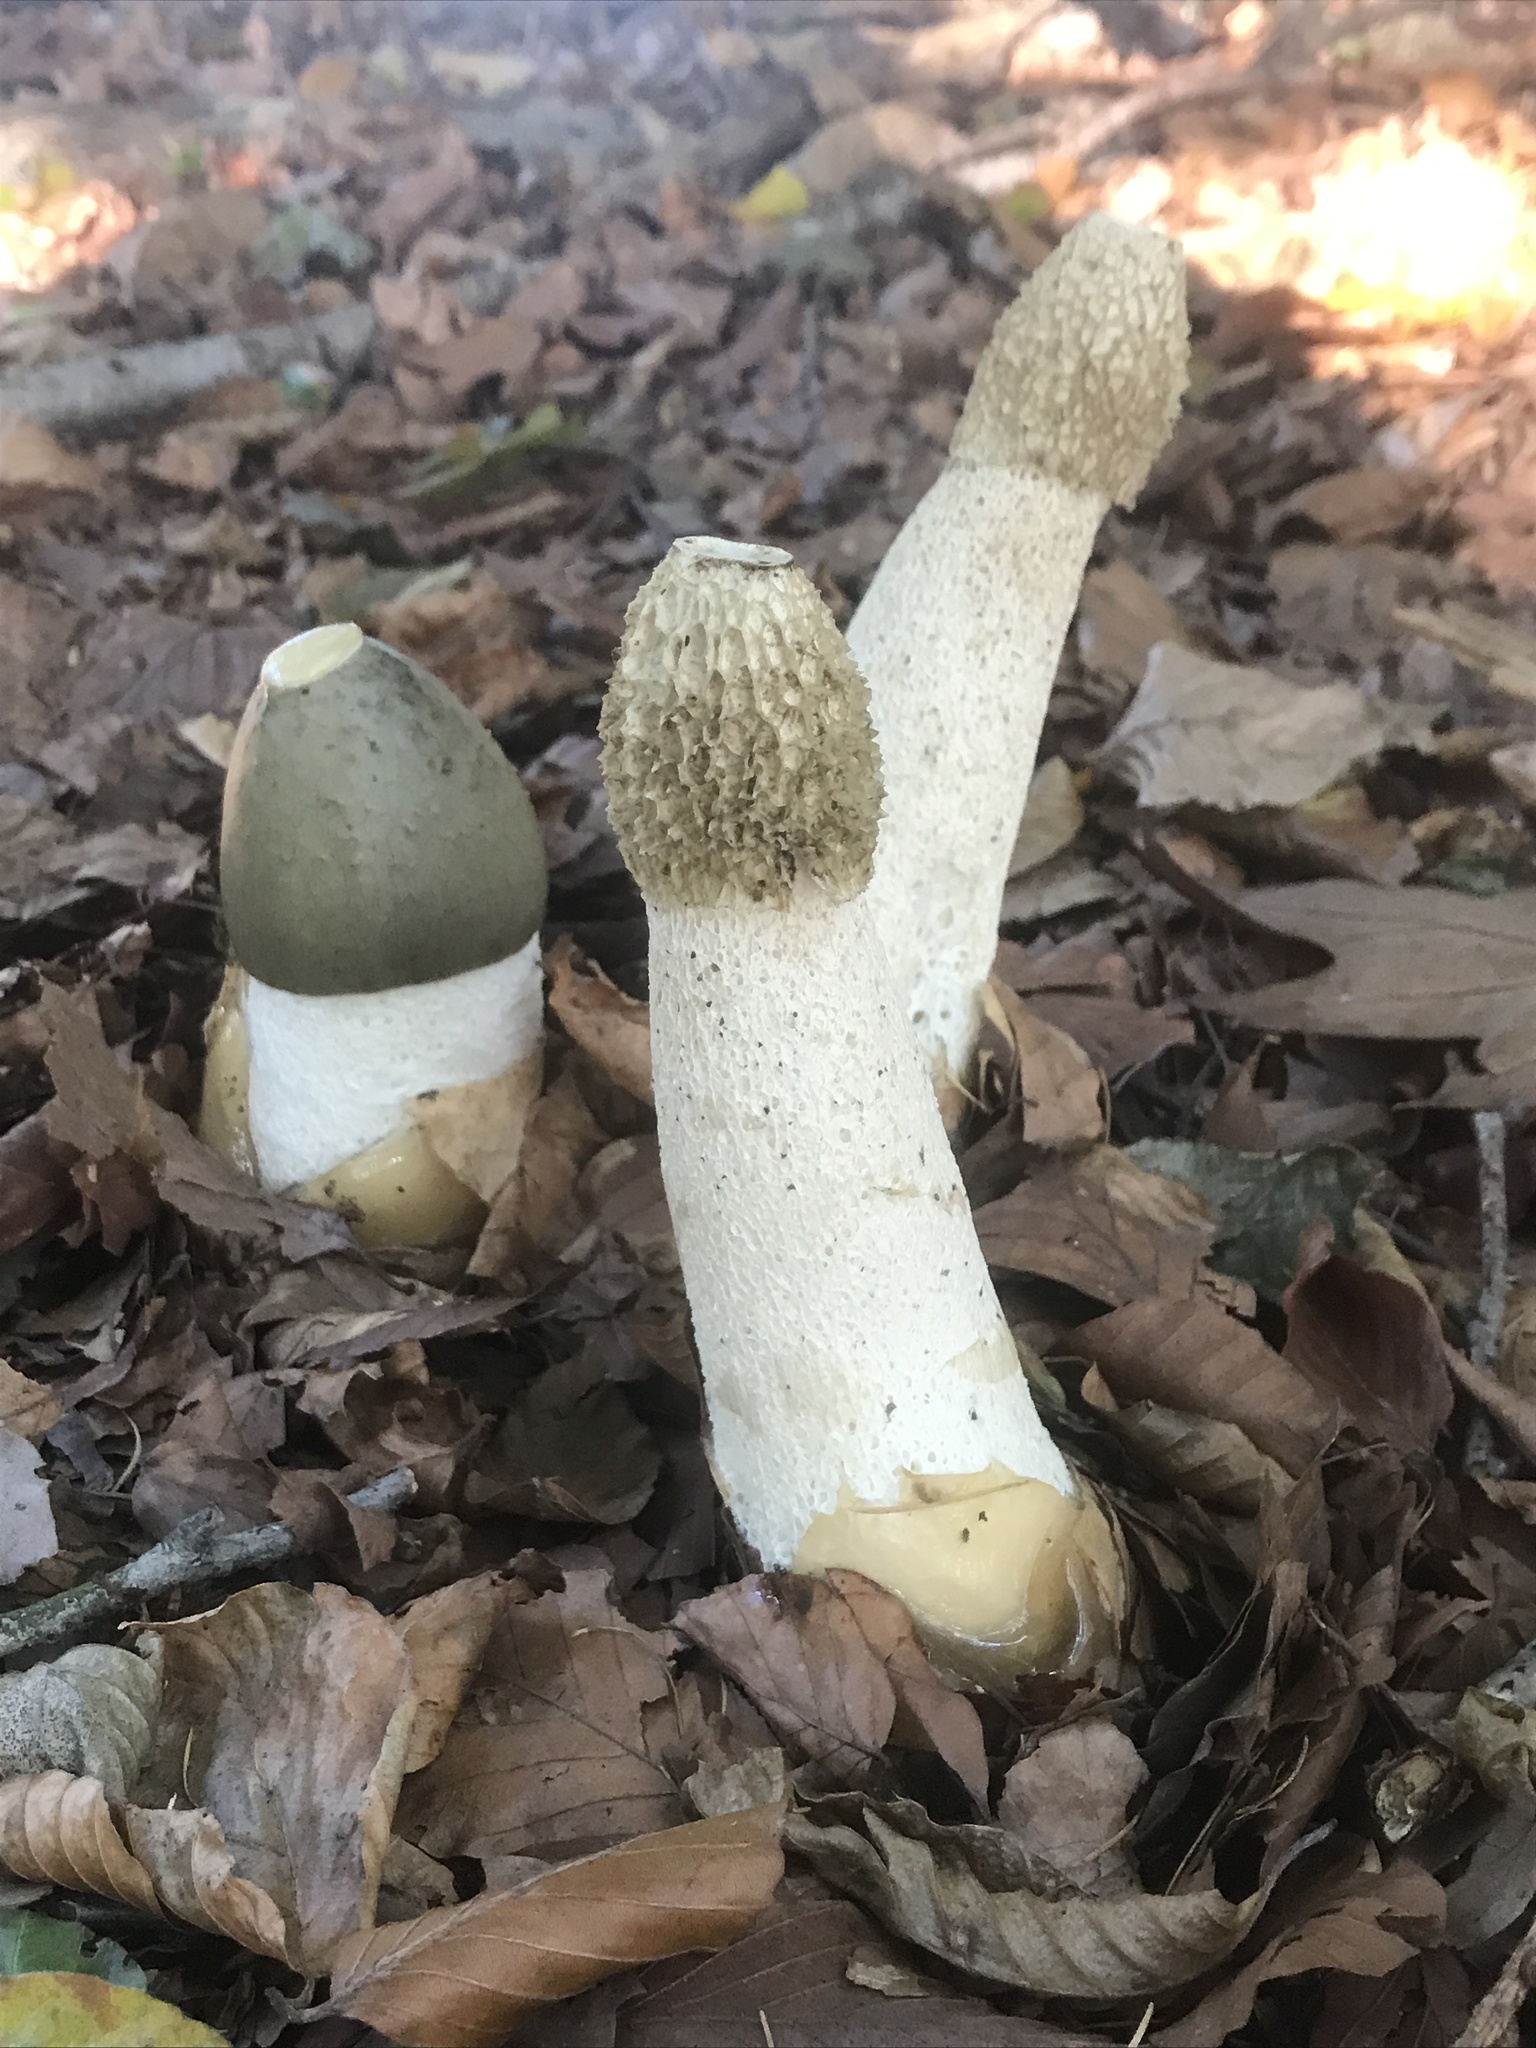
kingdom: Fungi
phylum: Basidiomycota
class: Agaricomycetes
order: Phallales
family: Phallaceae
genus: Phallus
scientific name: Phallus impudicus
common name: Common stinkhorn
